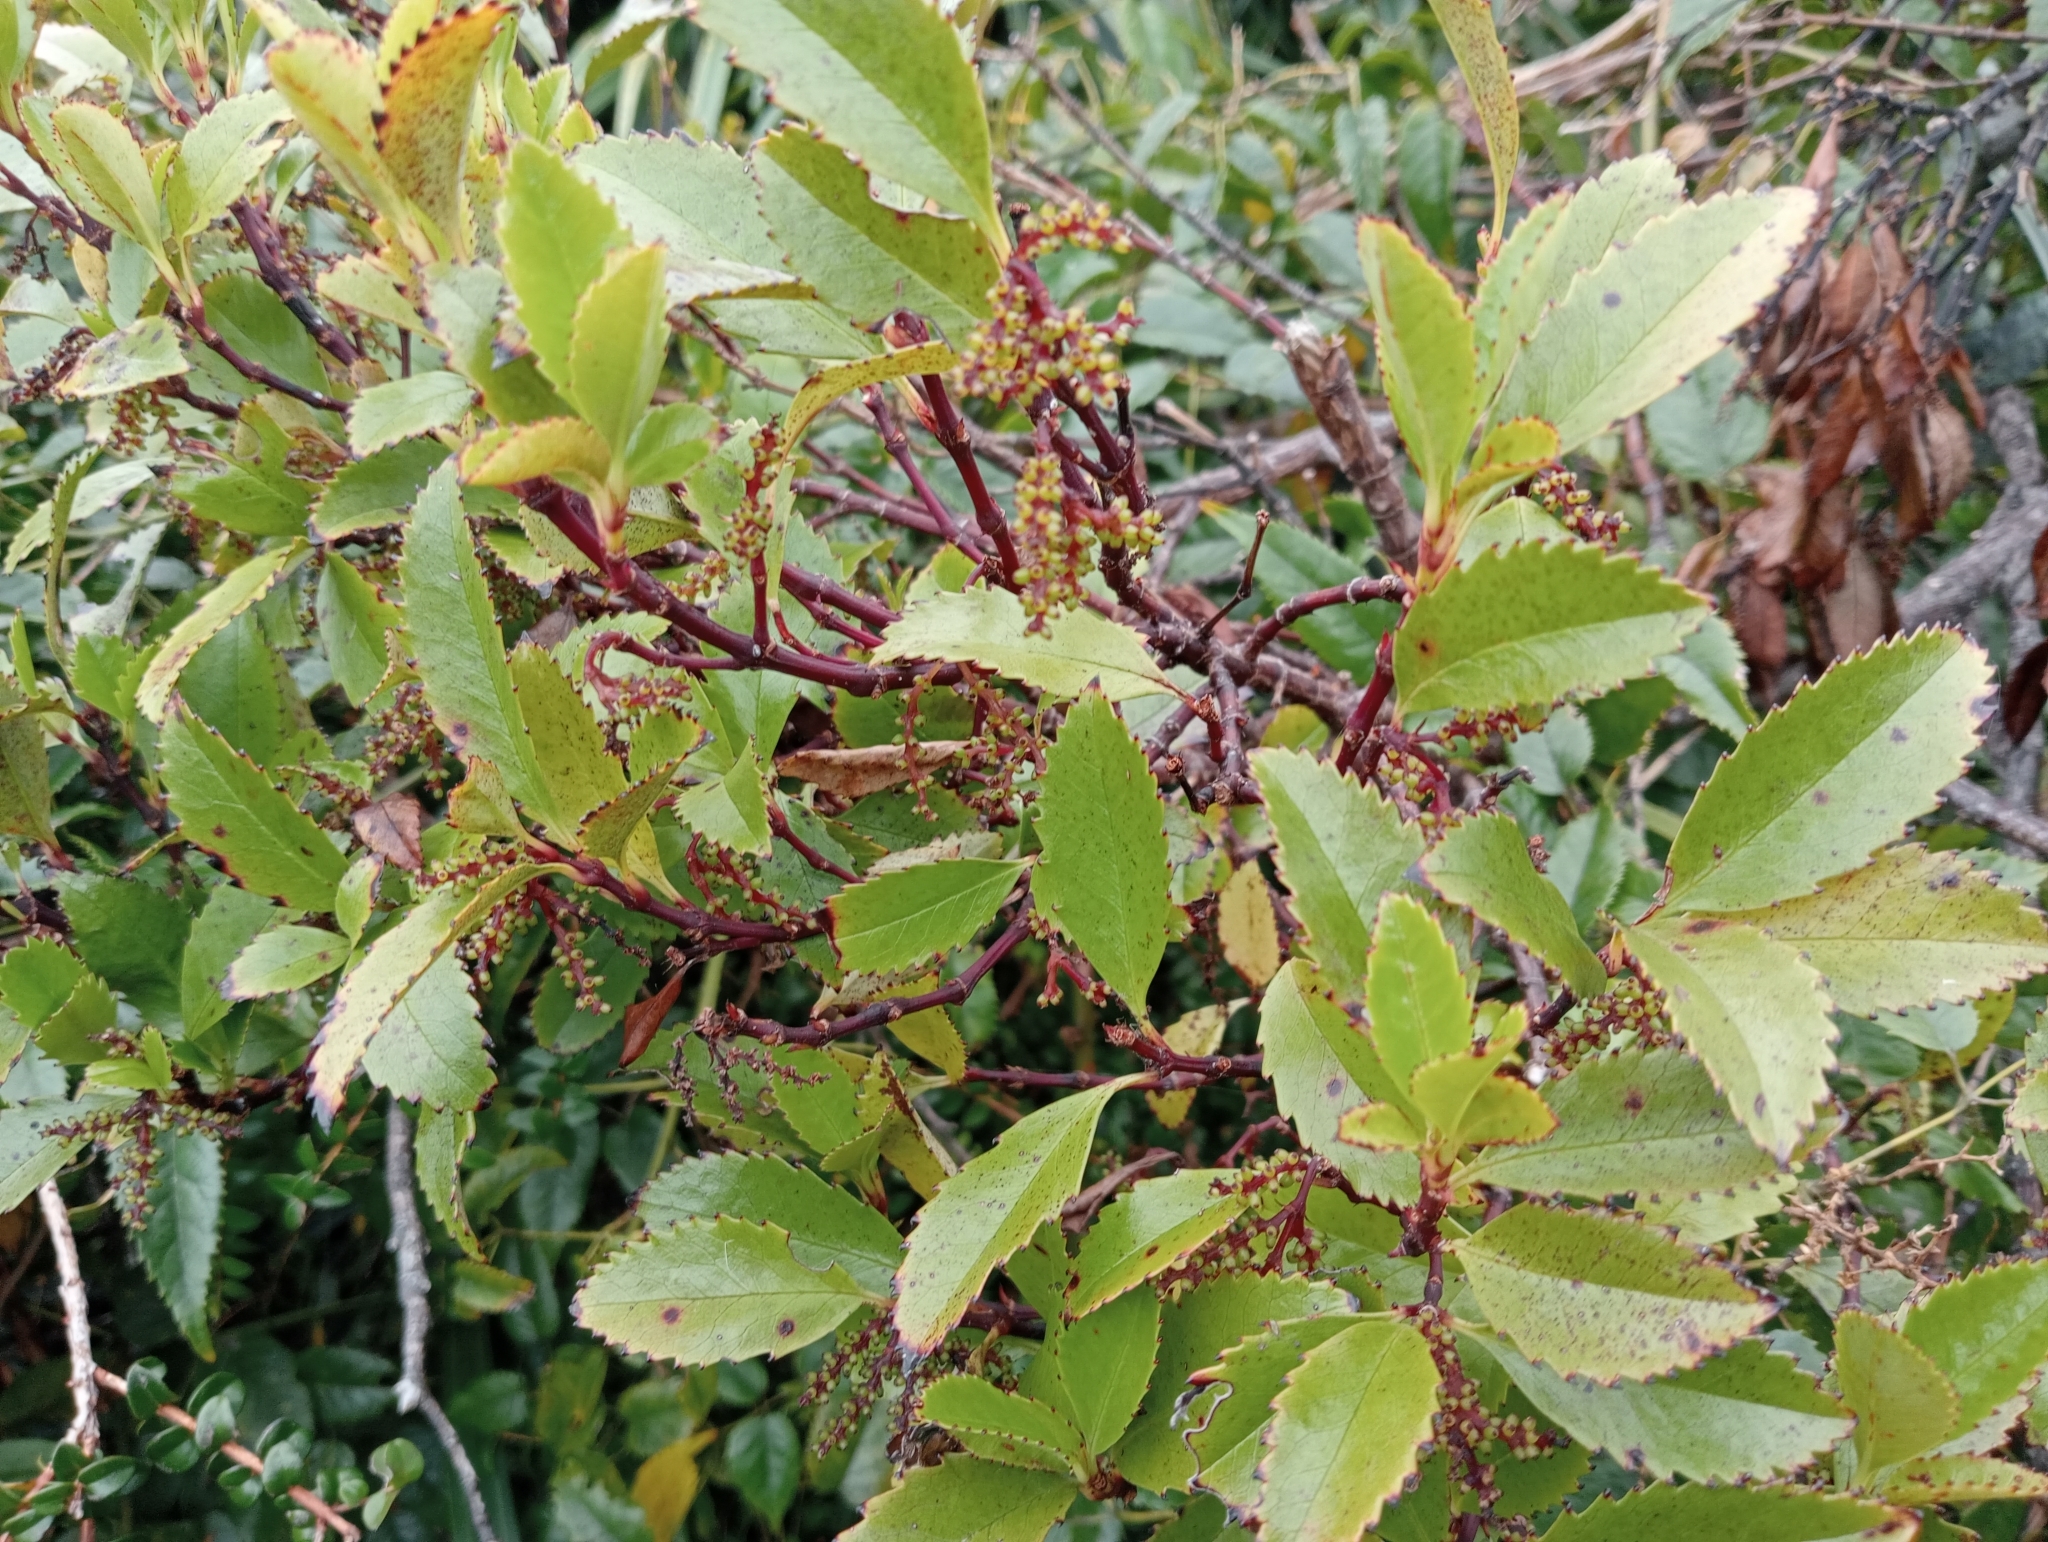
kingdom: Plantae
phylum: Tracheophyta
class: Magnoliopsida
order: Chloranthales
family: Chloranthaceae
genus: Ascarina
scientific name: Ascarina lucida
